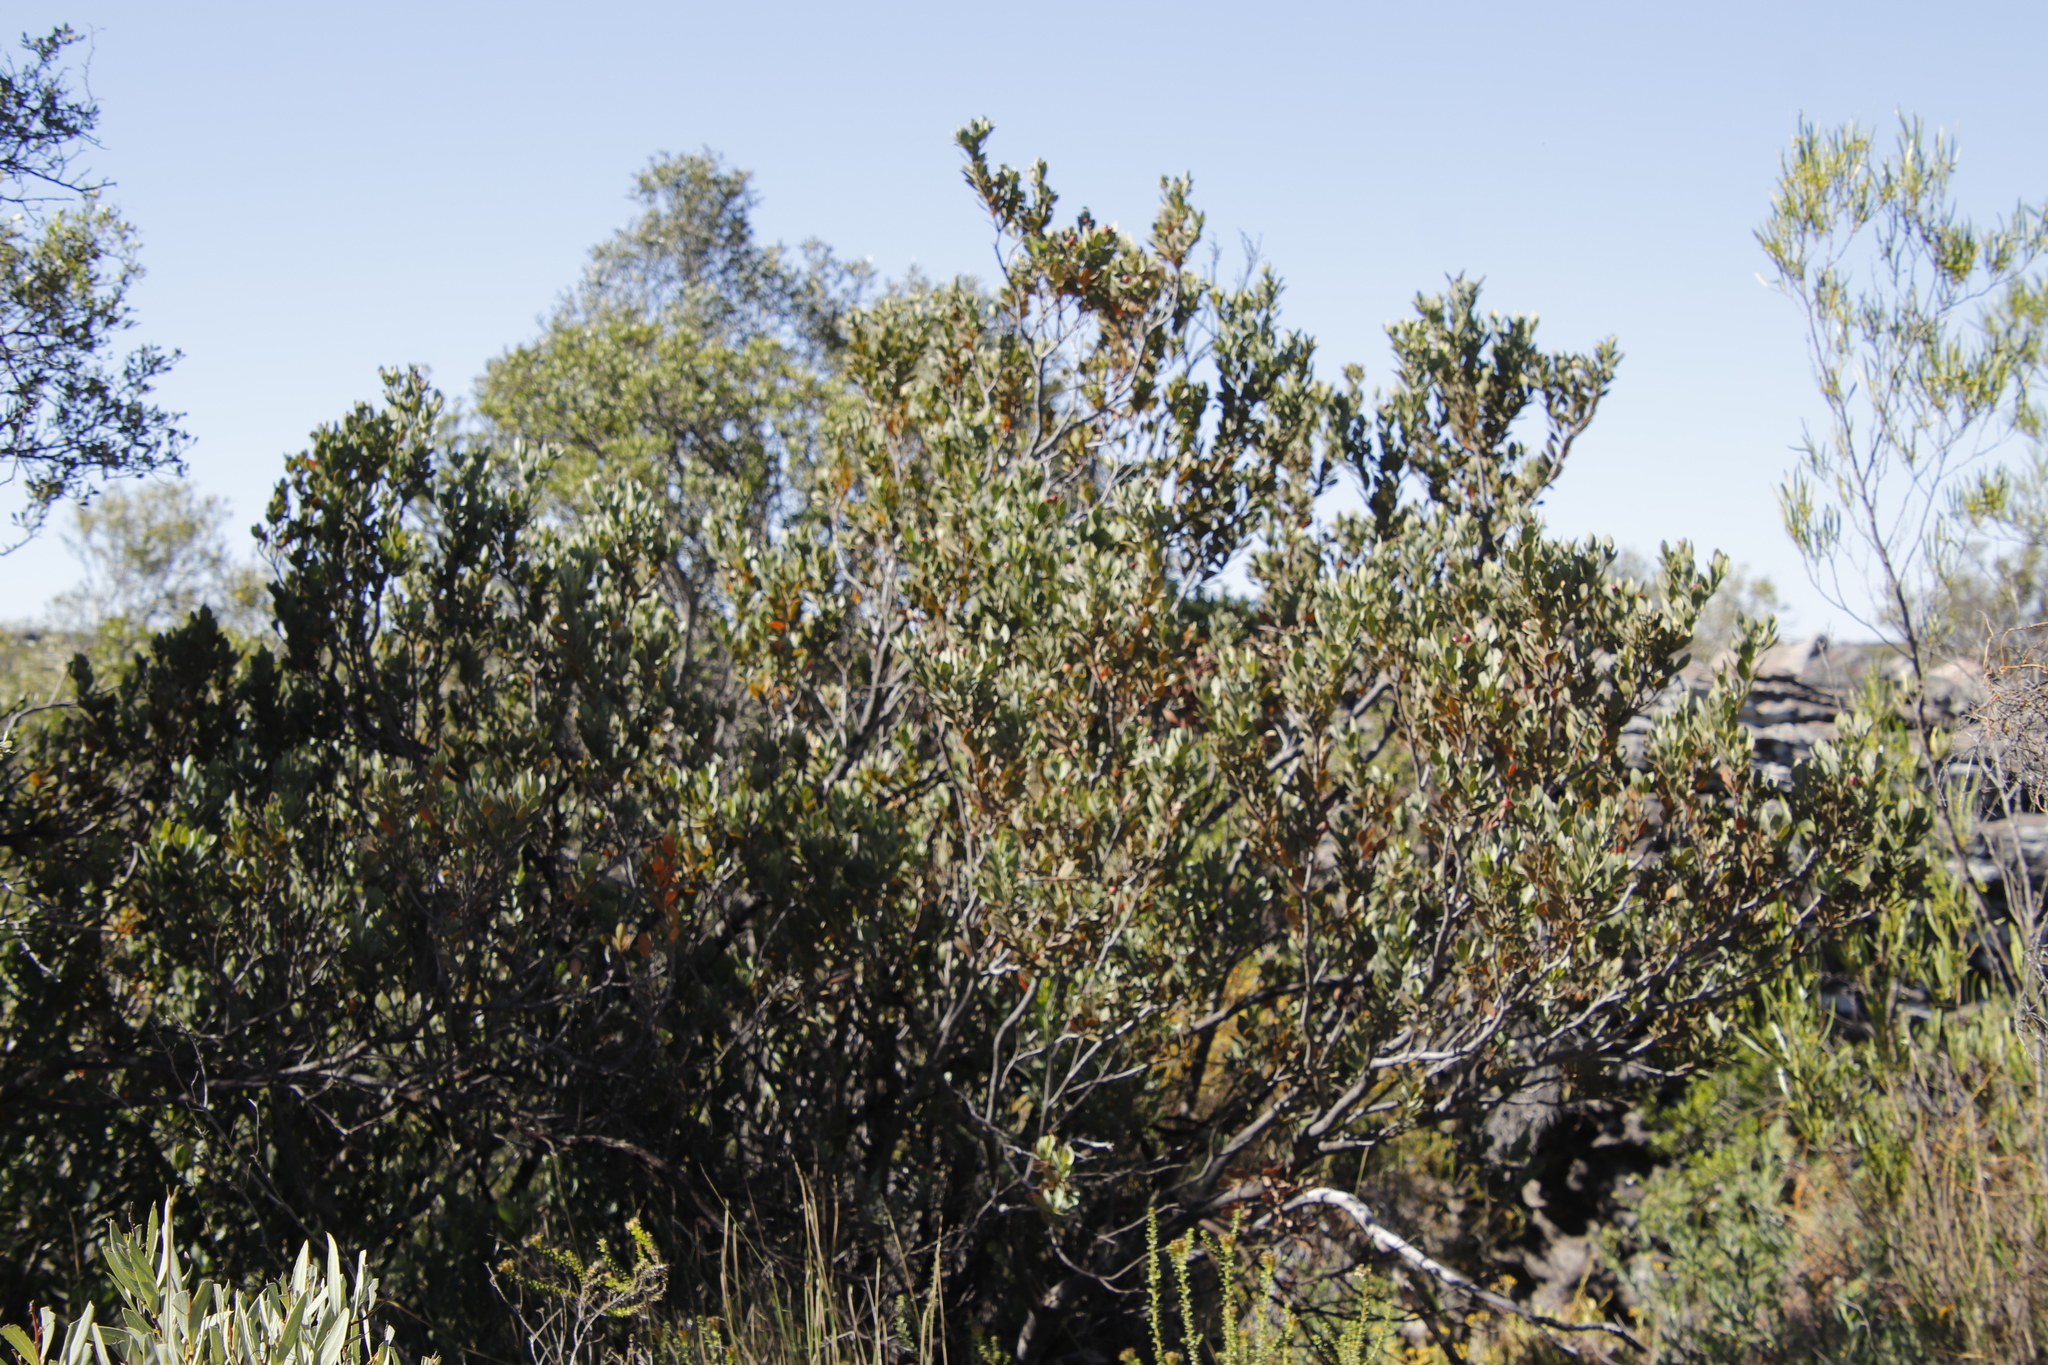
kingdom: Plantae
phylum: Tracheophyta
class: Magnoliopsida
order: Santalales
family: Santalaceae
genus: Osyris
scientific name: Osyris compressa
